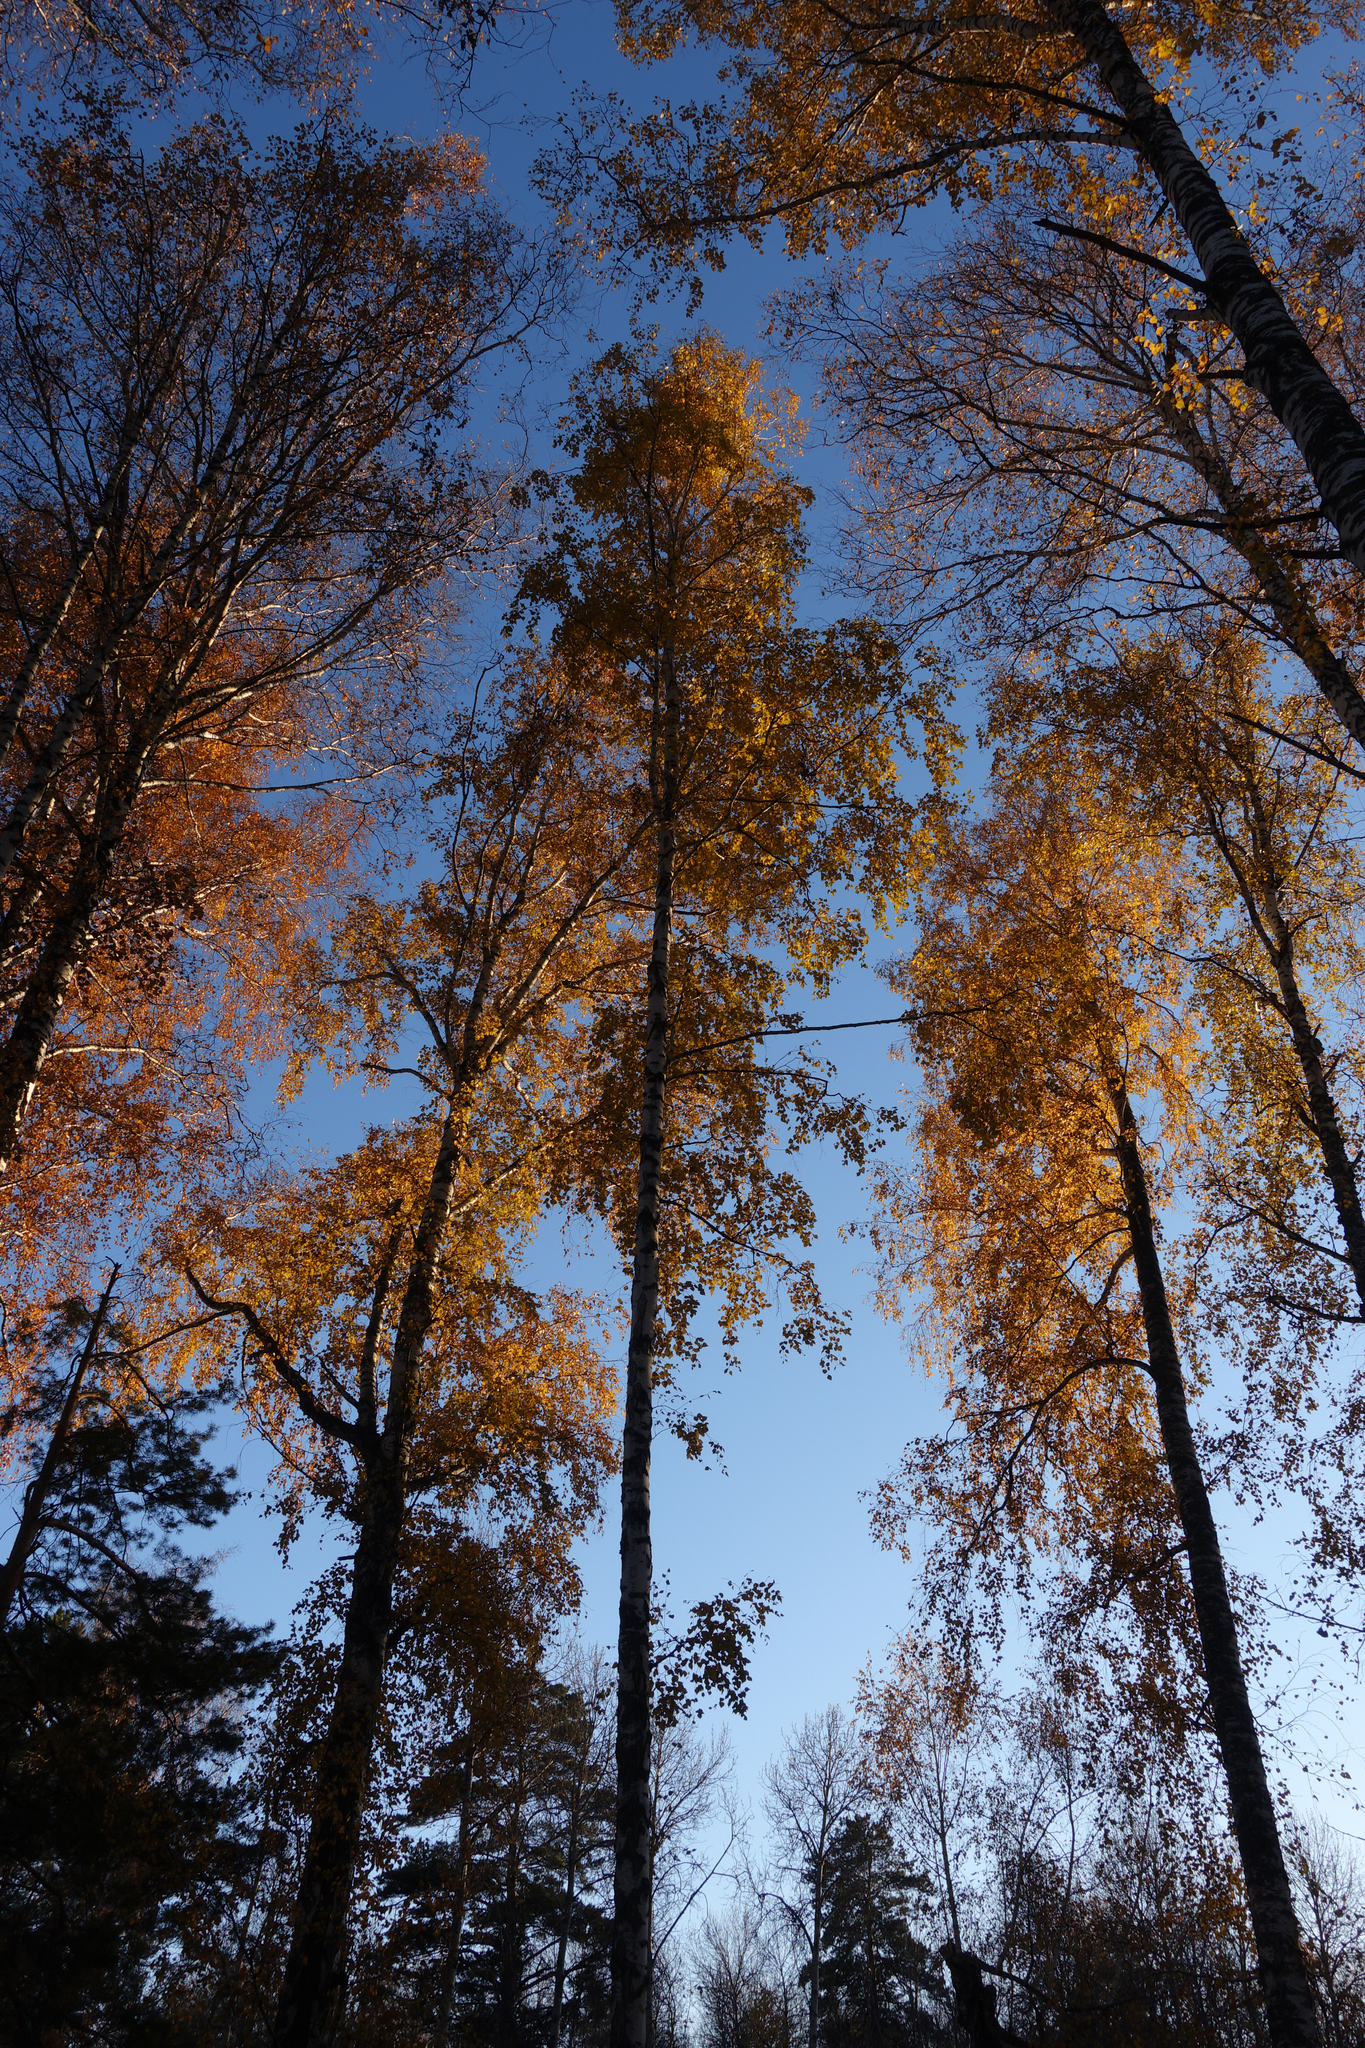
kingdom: Plantae
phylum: Tracheophyta
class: Magnoliopsida
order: Fagales
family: Betulaceae
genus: Betula
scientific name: Betula pendula
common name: Silver birch
